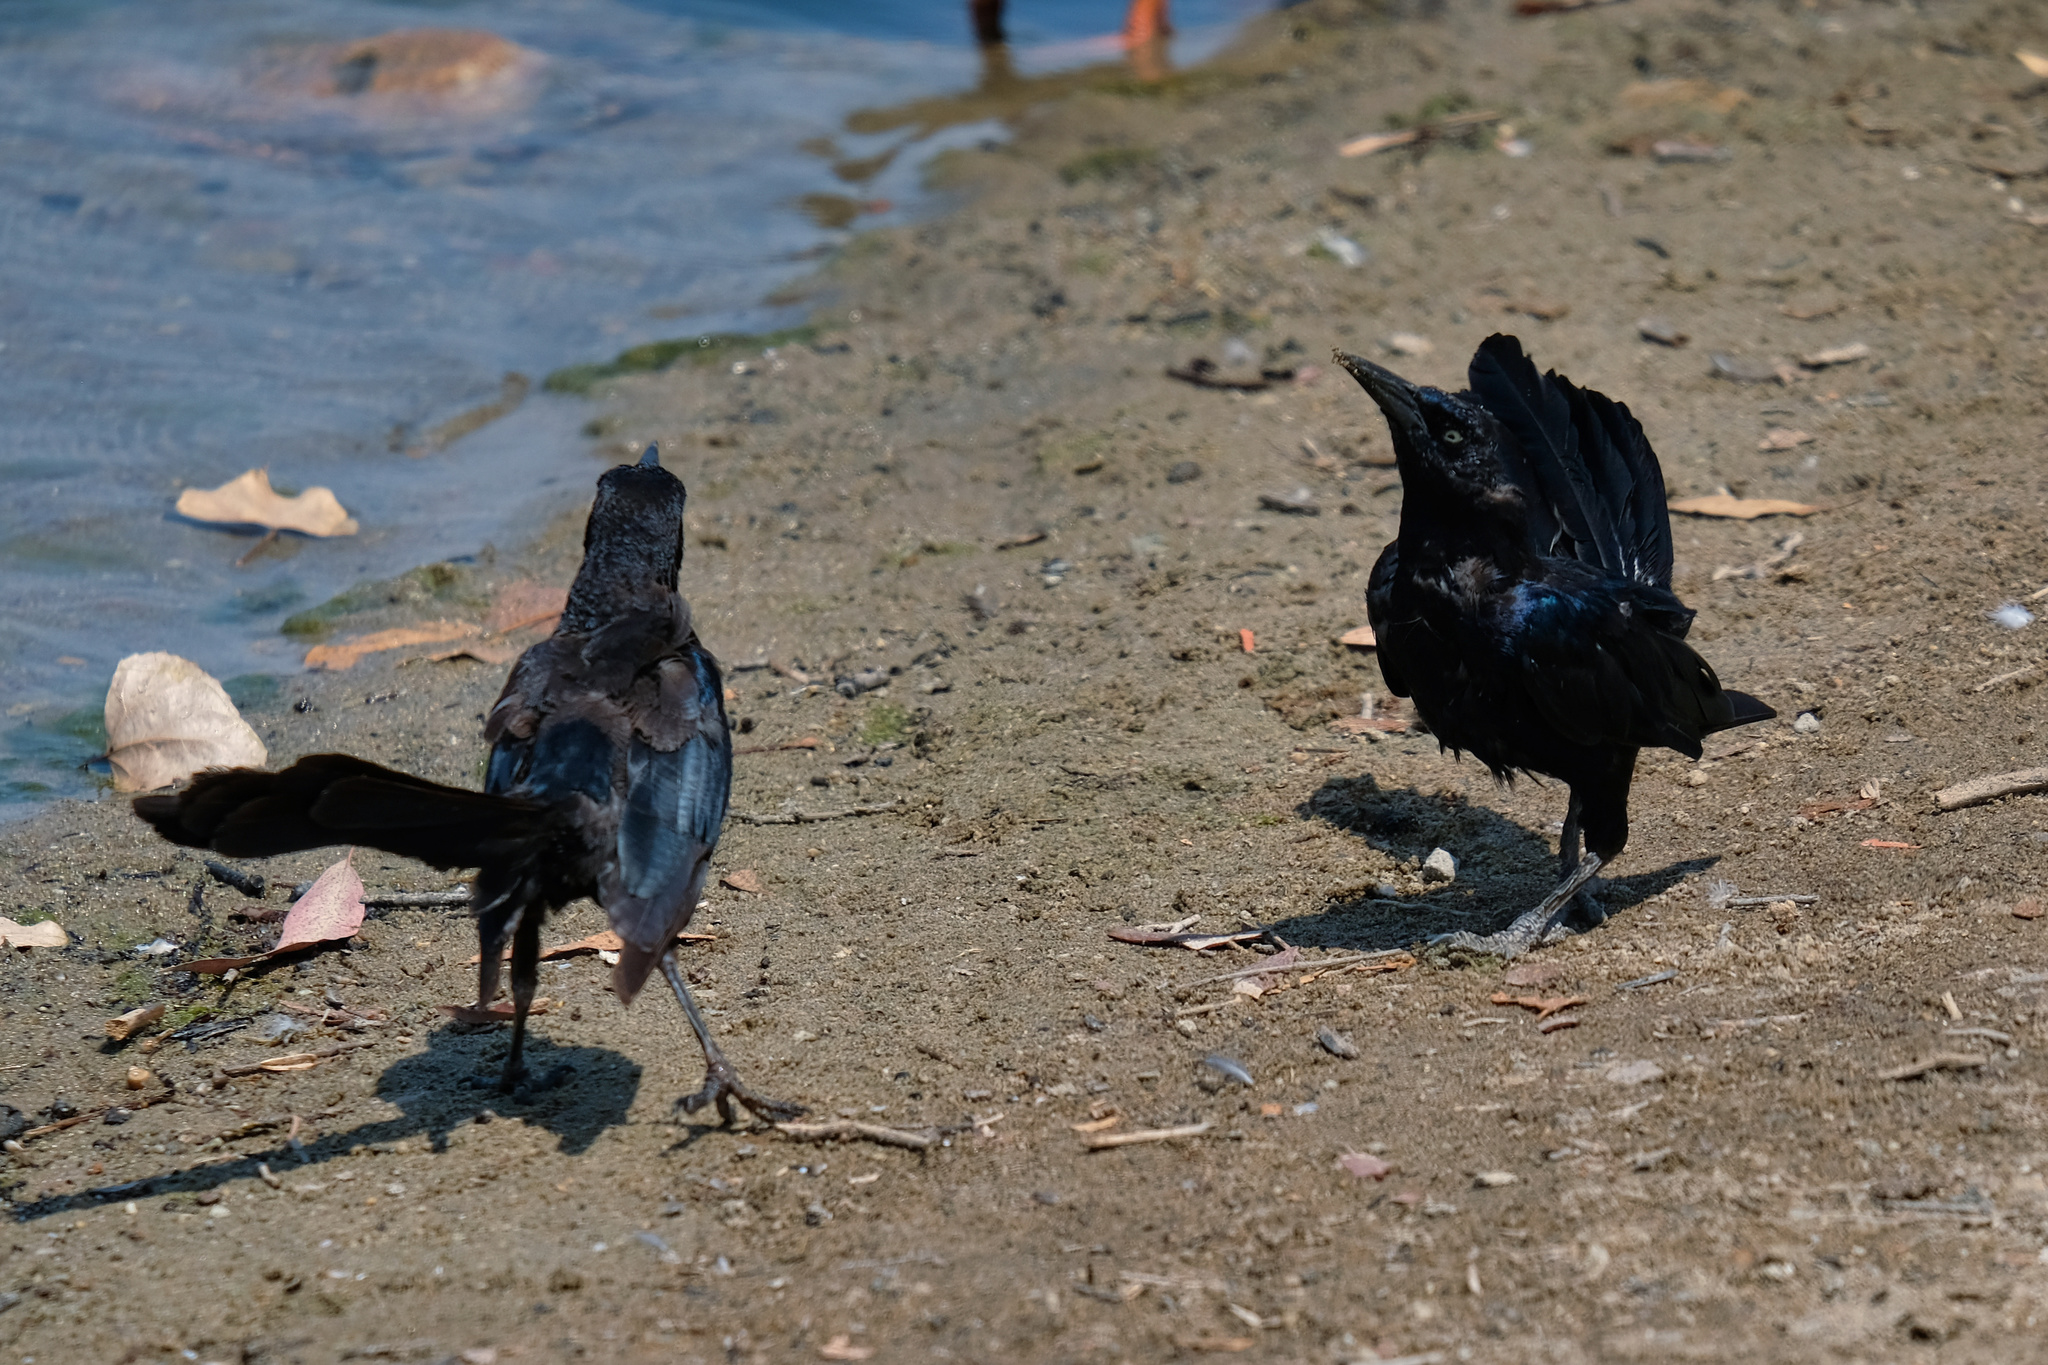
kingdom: Animalia
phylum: Chordata
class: Aves
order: Passeriformes
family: Icteridae
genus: Quiscalus
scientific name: Quiscalus mexicanus
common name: Great-tailed grackle
